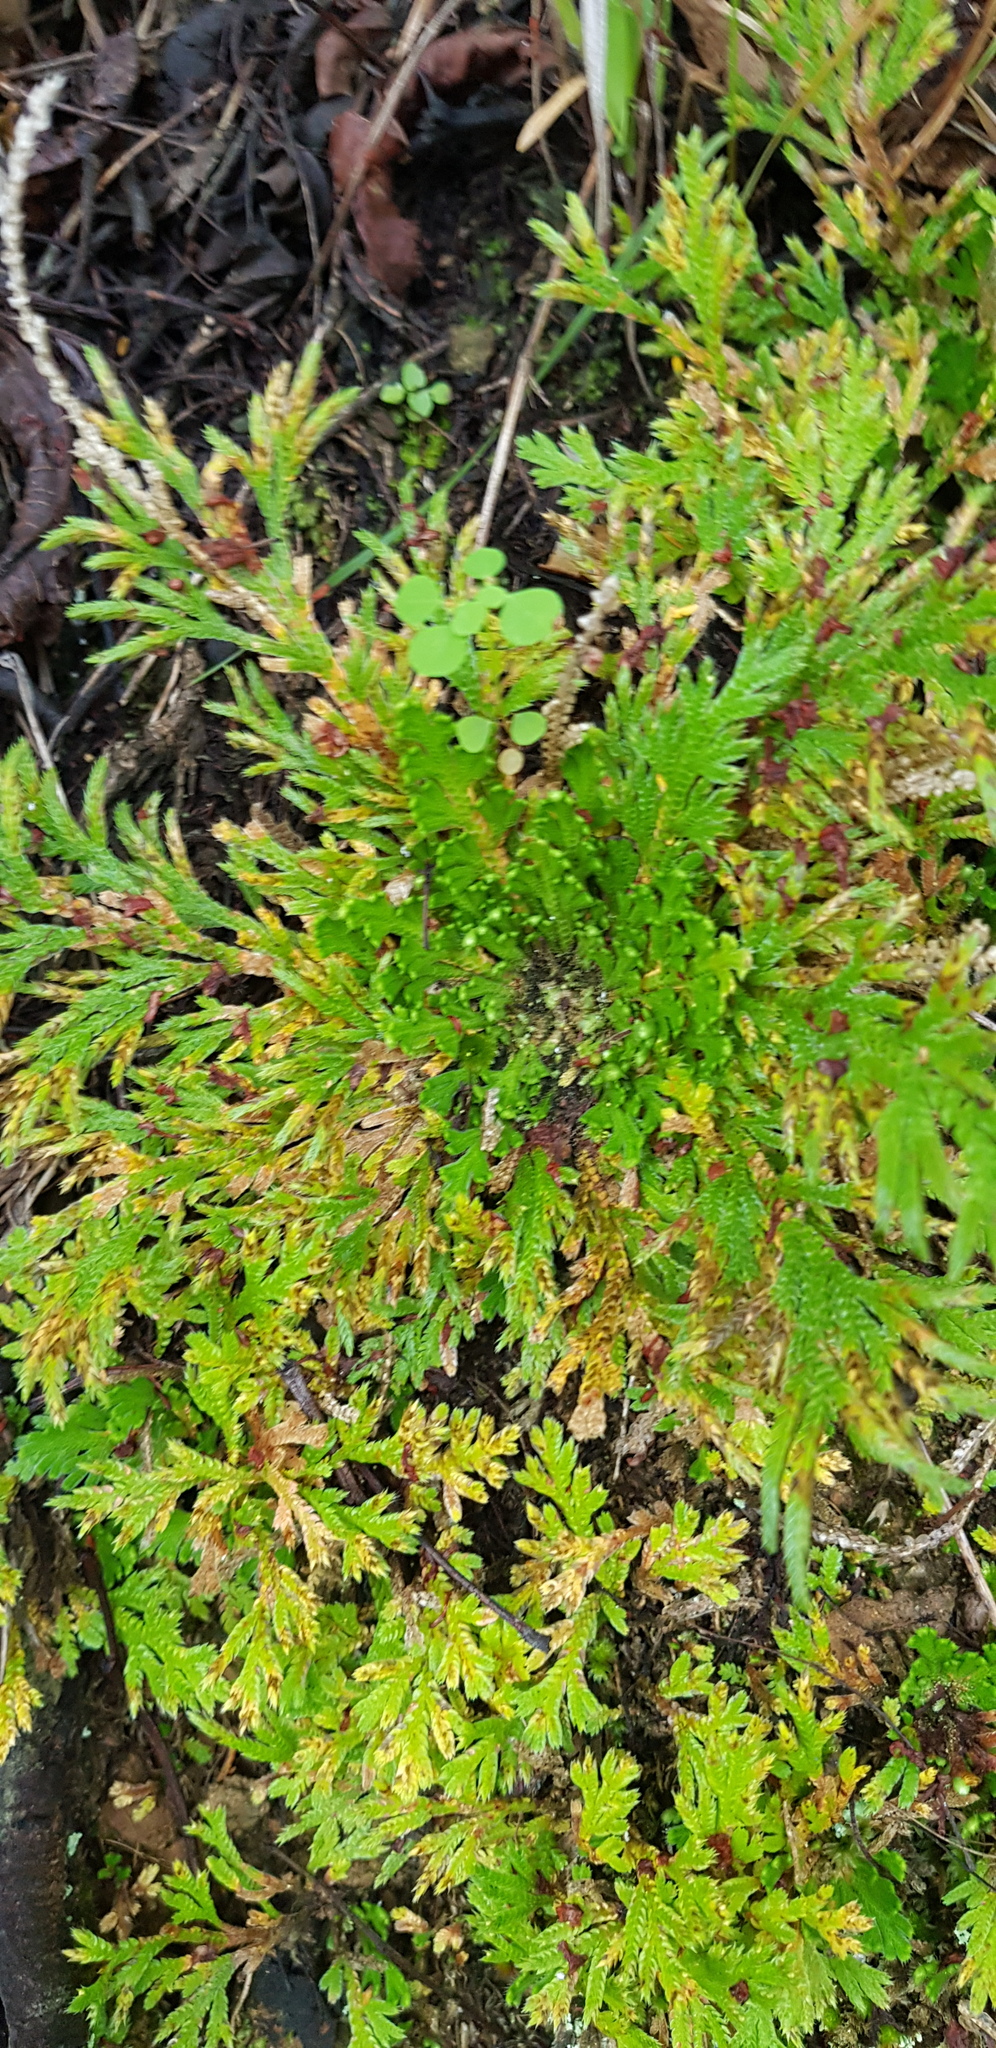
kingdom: Plantae
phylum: Tracheophyta
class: Lycopodiopsida
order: Selaginellales
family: Selaginellaceae
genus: Selaginella
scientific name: Selaginella lepidophylla
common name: Rose-of-jericho
